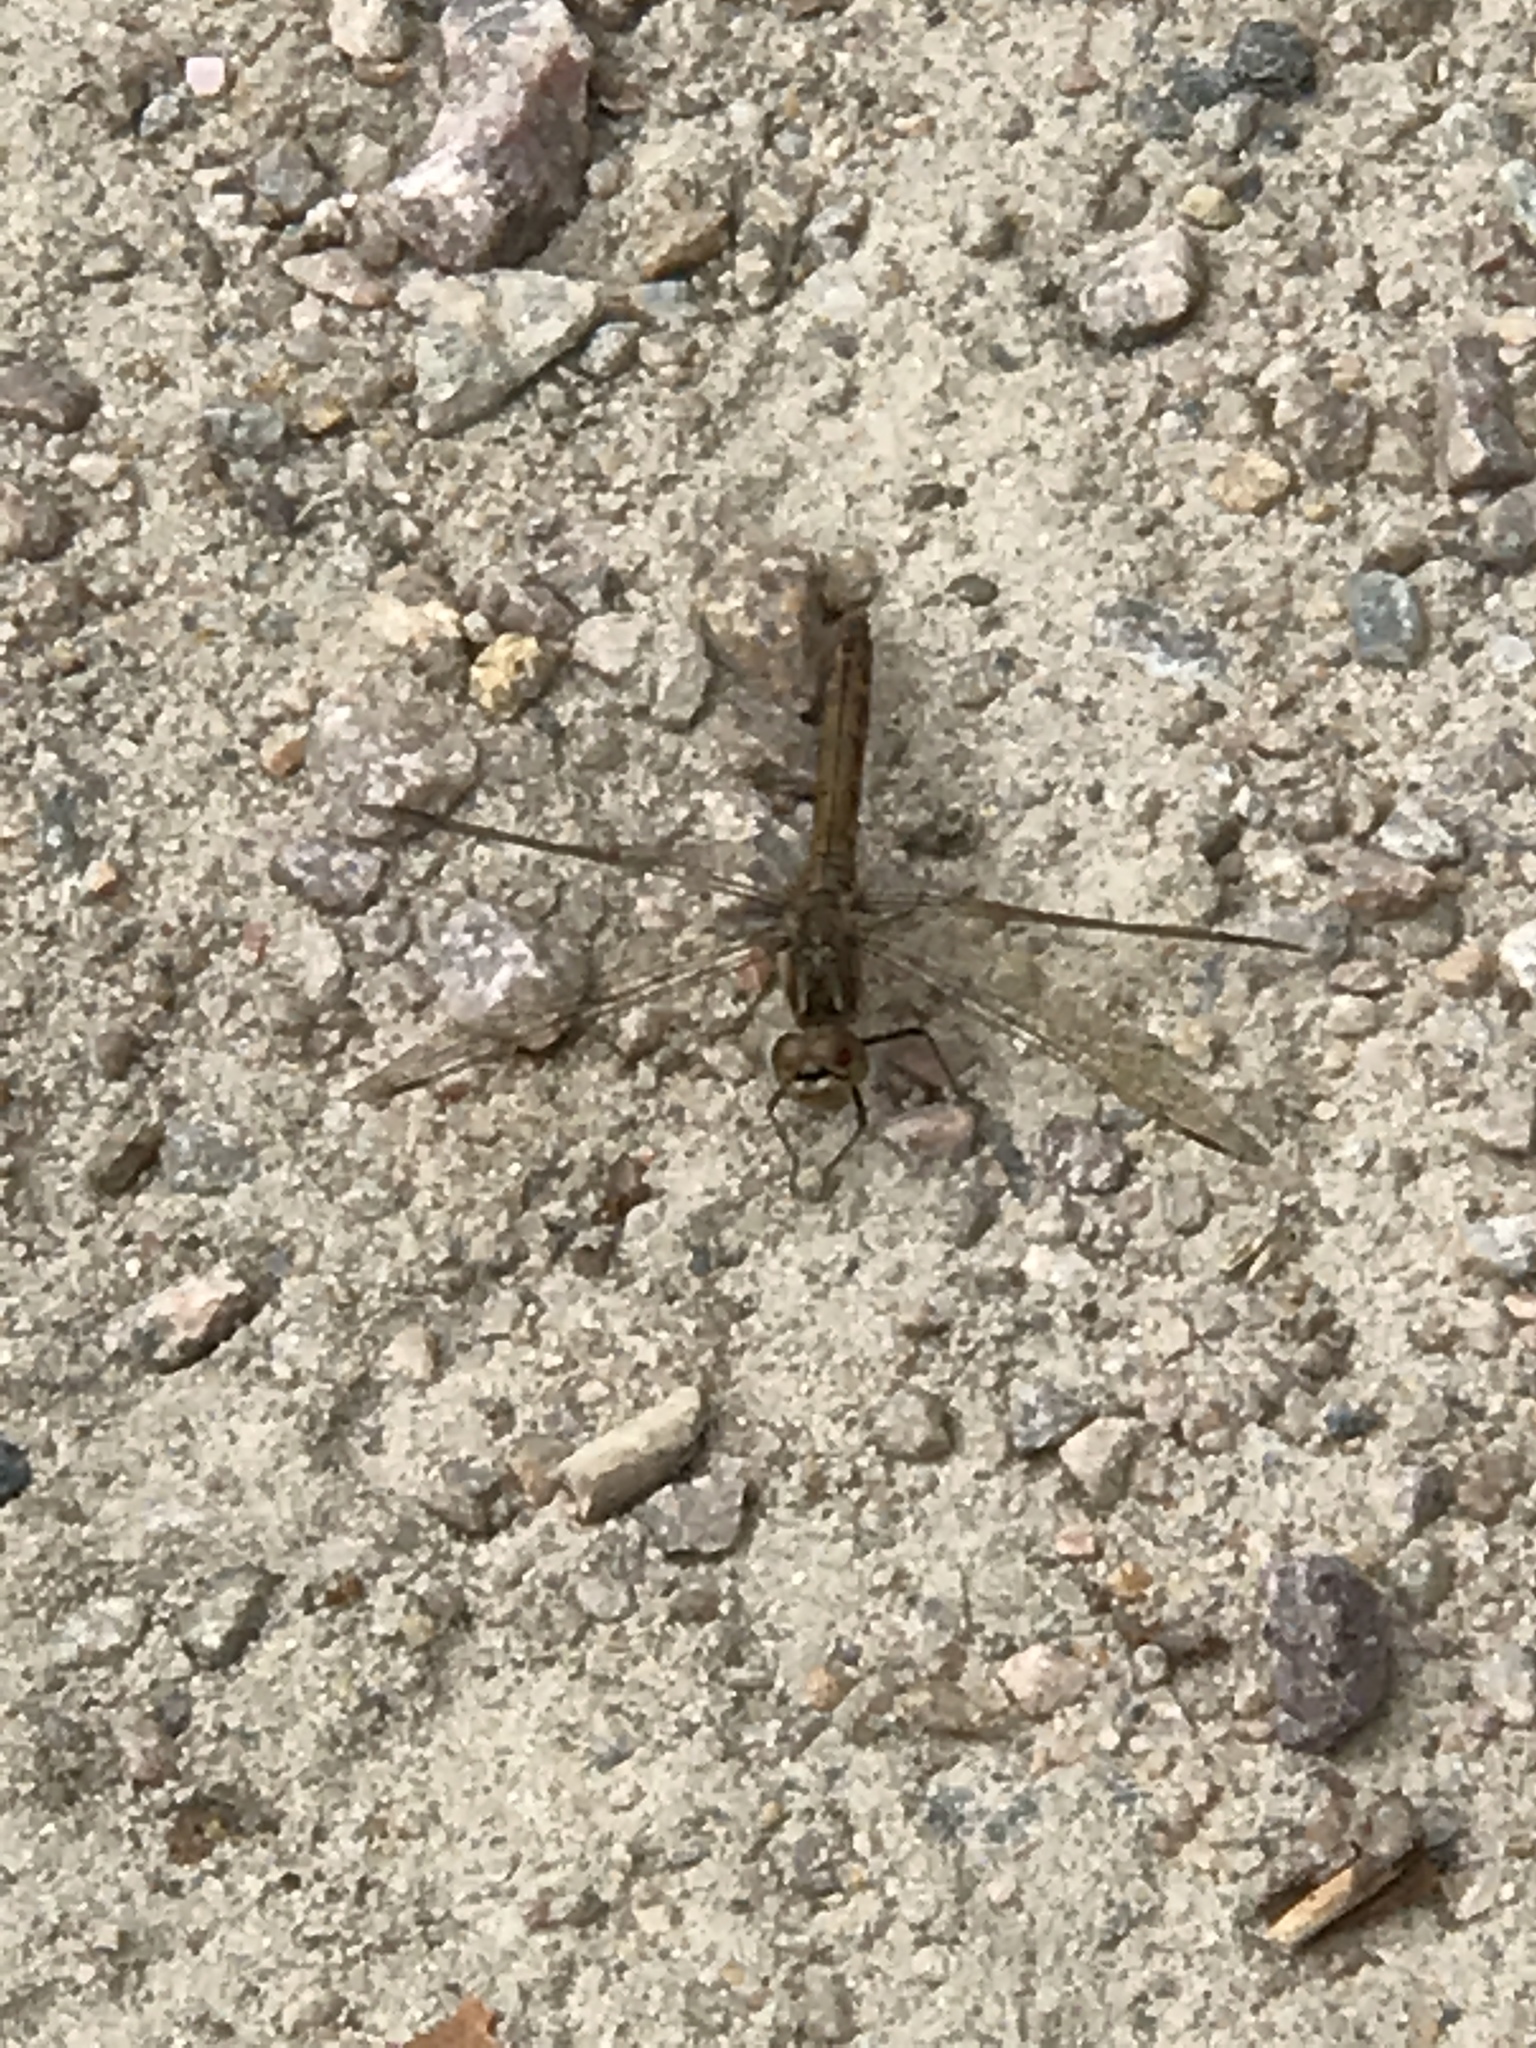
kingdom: Animalia
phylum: Arthropoda
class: Insecta
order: Odonata
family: Libellulidae
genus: Sympetrum
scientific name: Sympetrum vulgatum
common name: Vagrant darter
